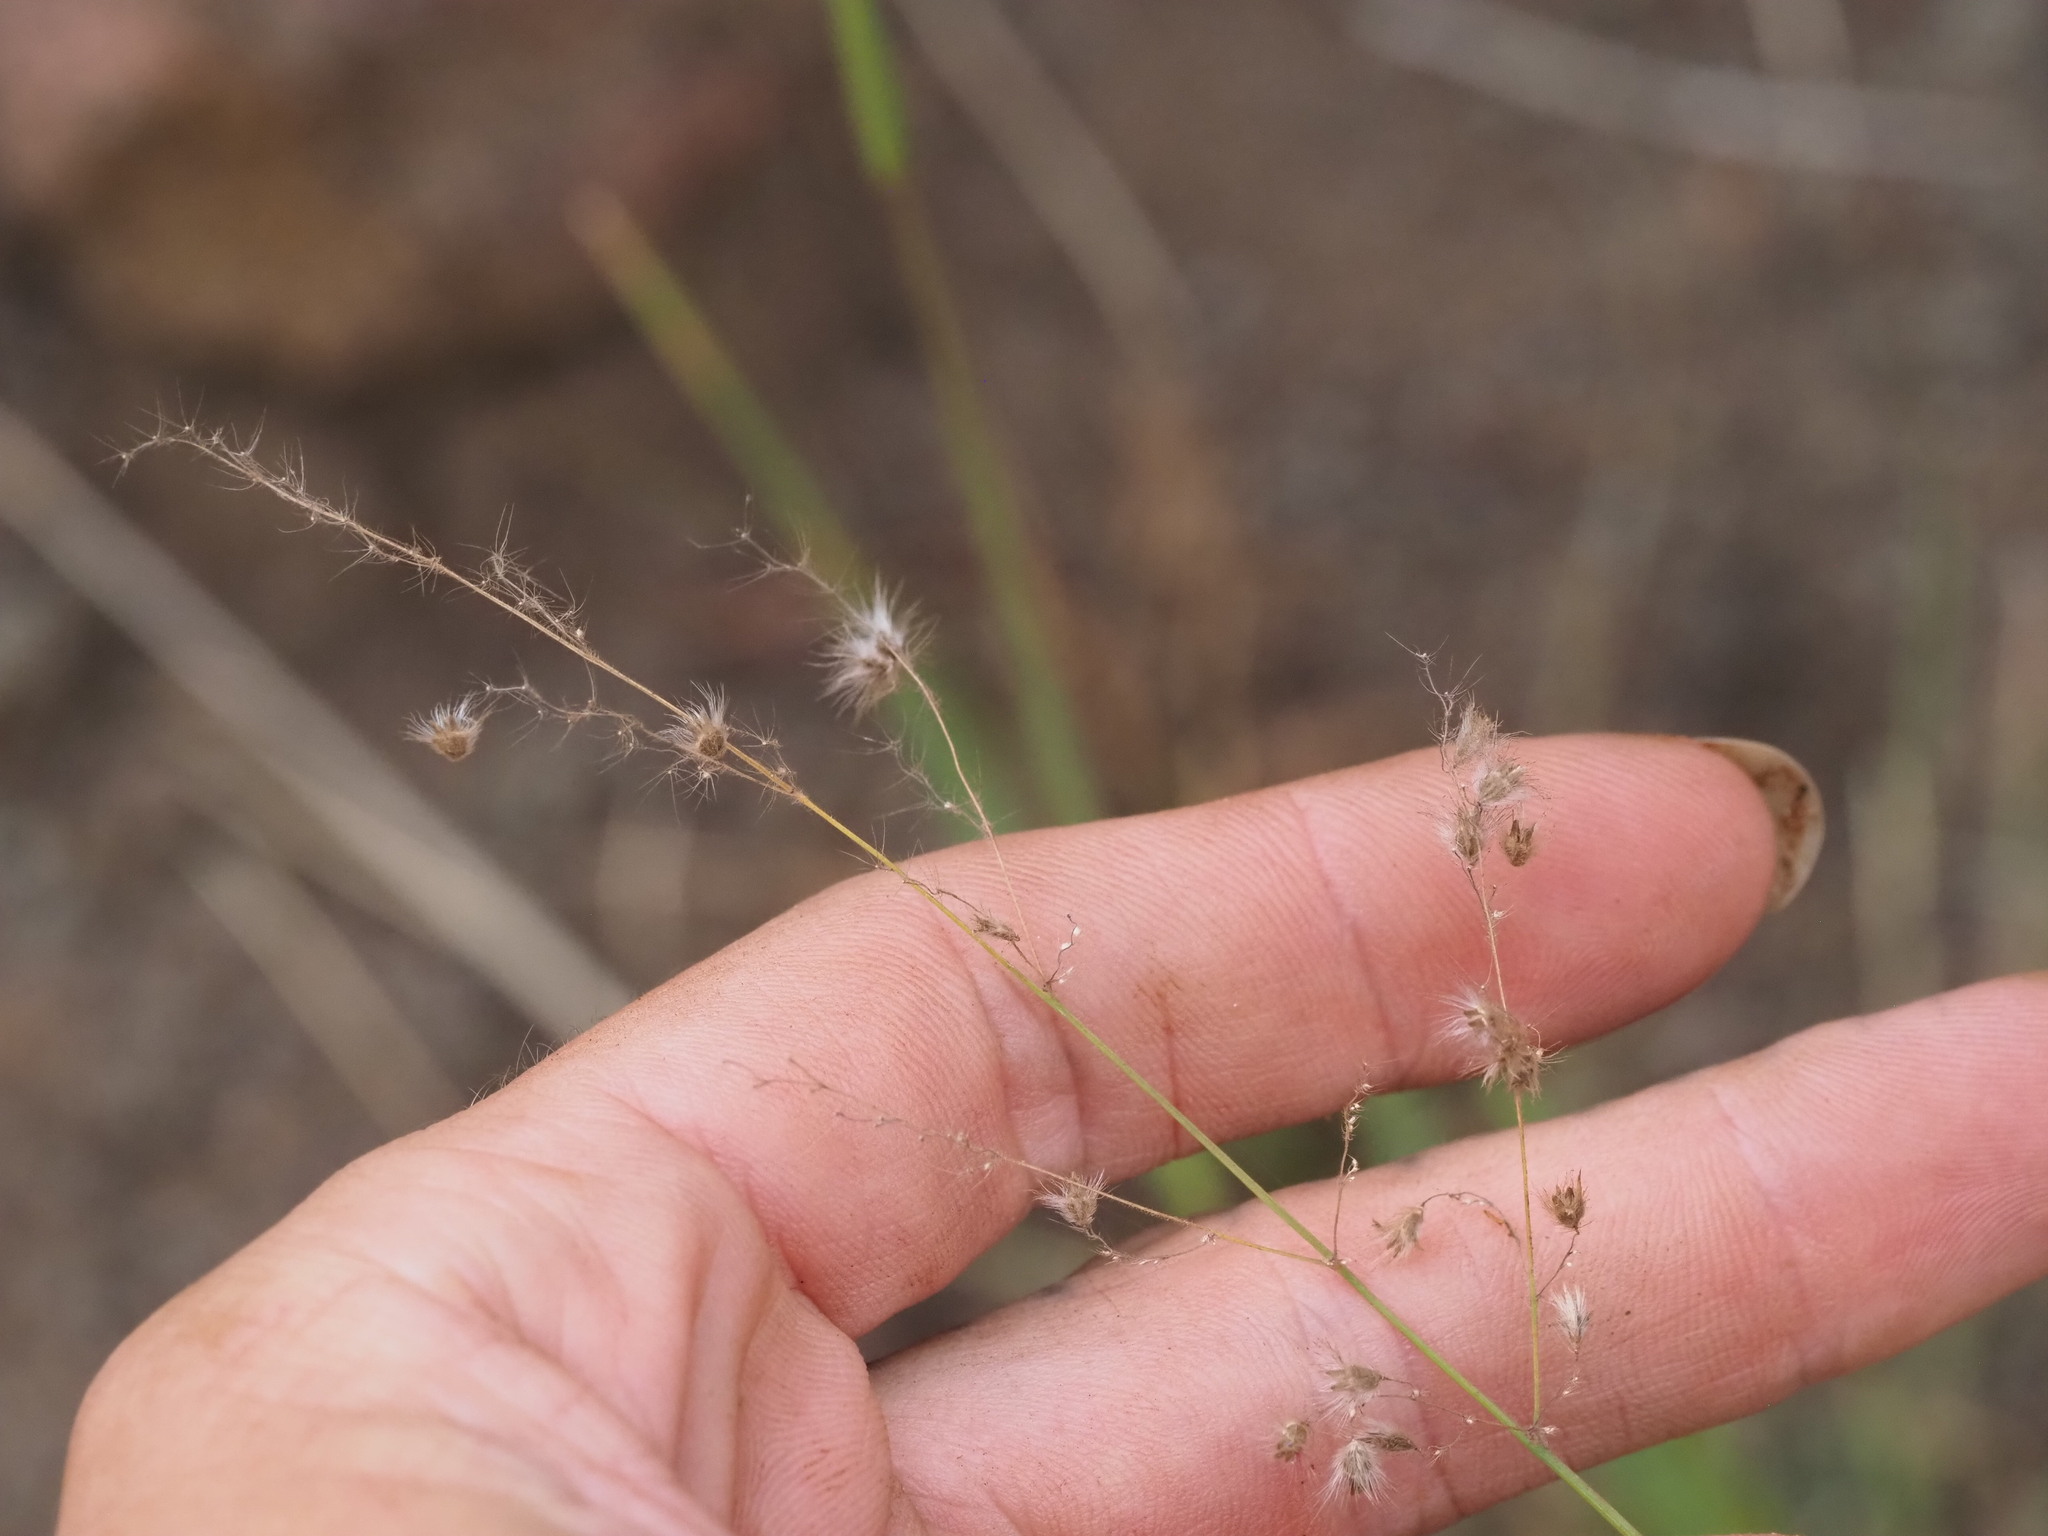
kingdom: Plantae
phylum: Tracheophyta
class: Liliopsida
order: Poales
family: Poaceae
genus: Melinis
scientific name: Melinis repens
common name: Rose natal grass
